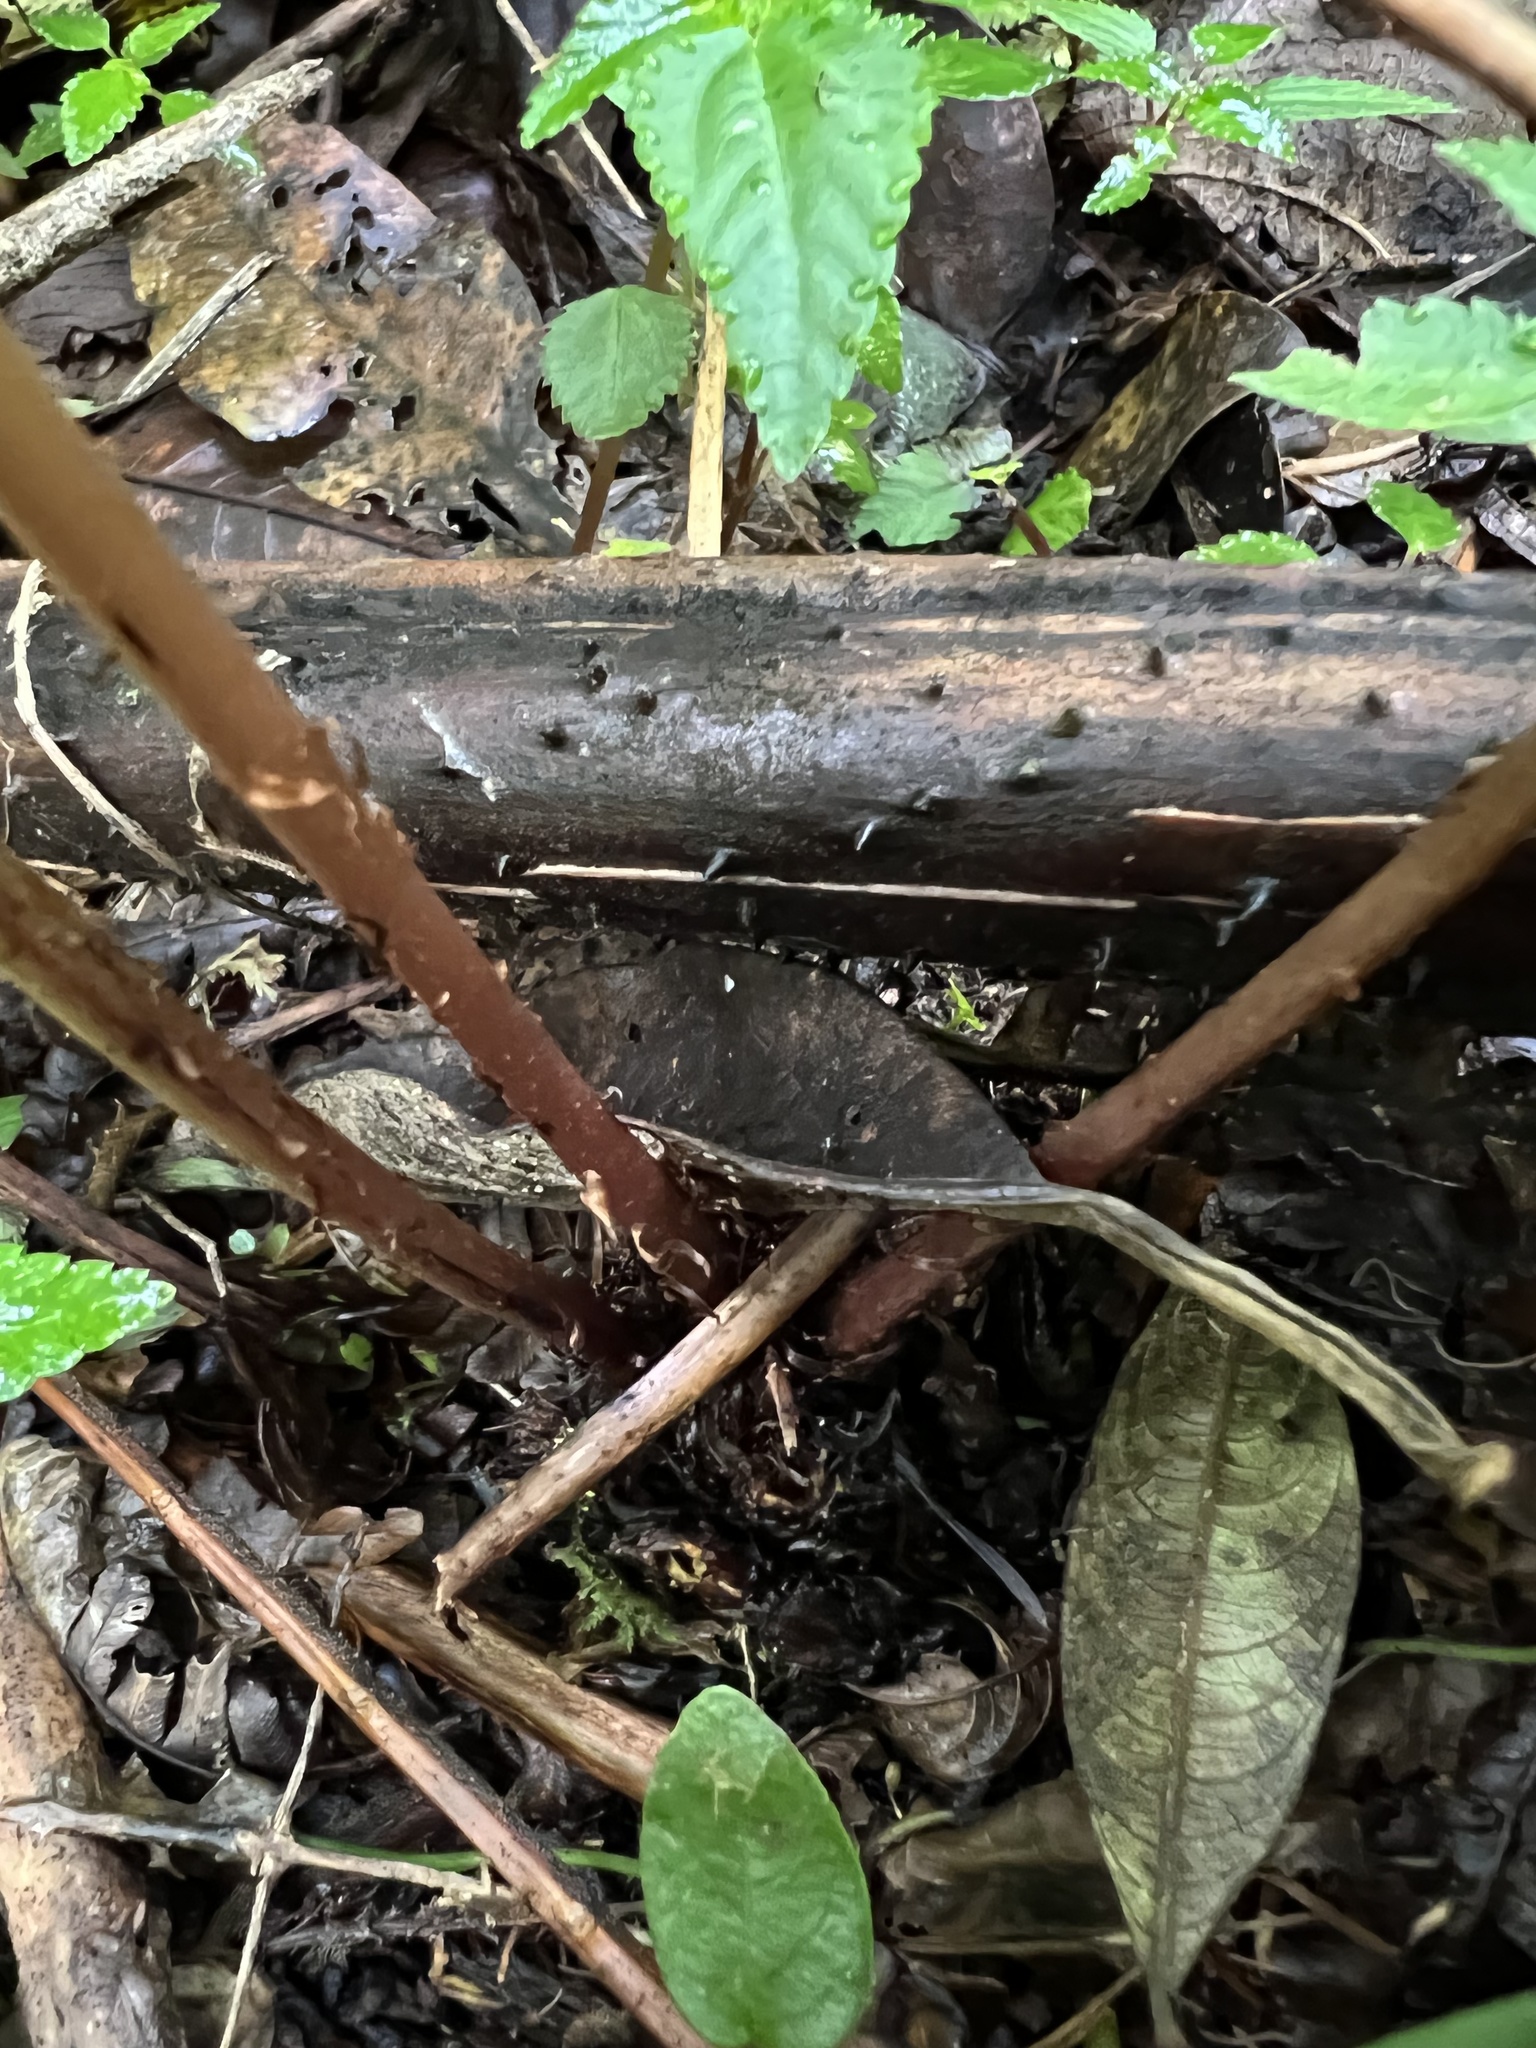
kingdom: Plantae
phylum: Tracheophyta
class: Polypodiopsida
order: Polypodiales
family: Athyriaceae
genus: Athyrium
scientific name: Athyrium filix-femina
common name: Lady fern
